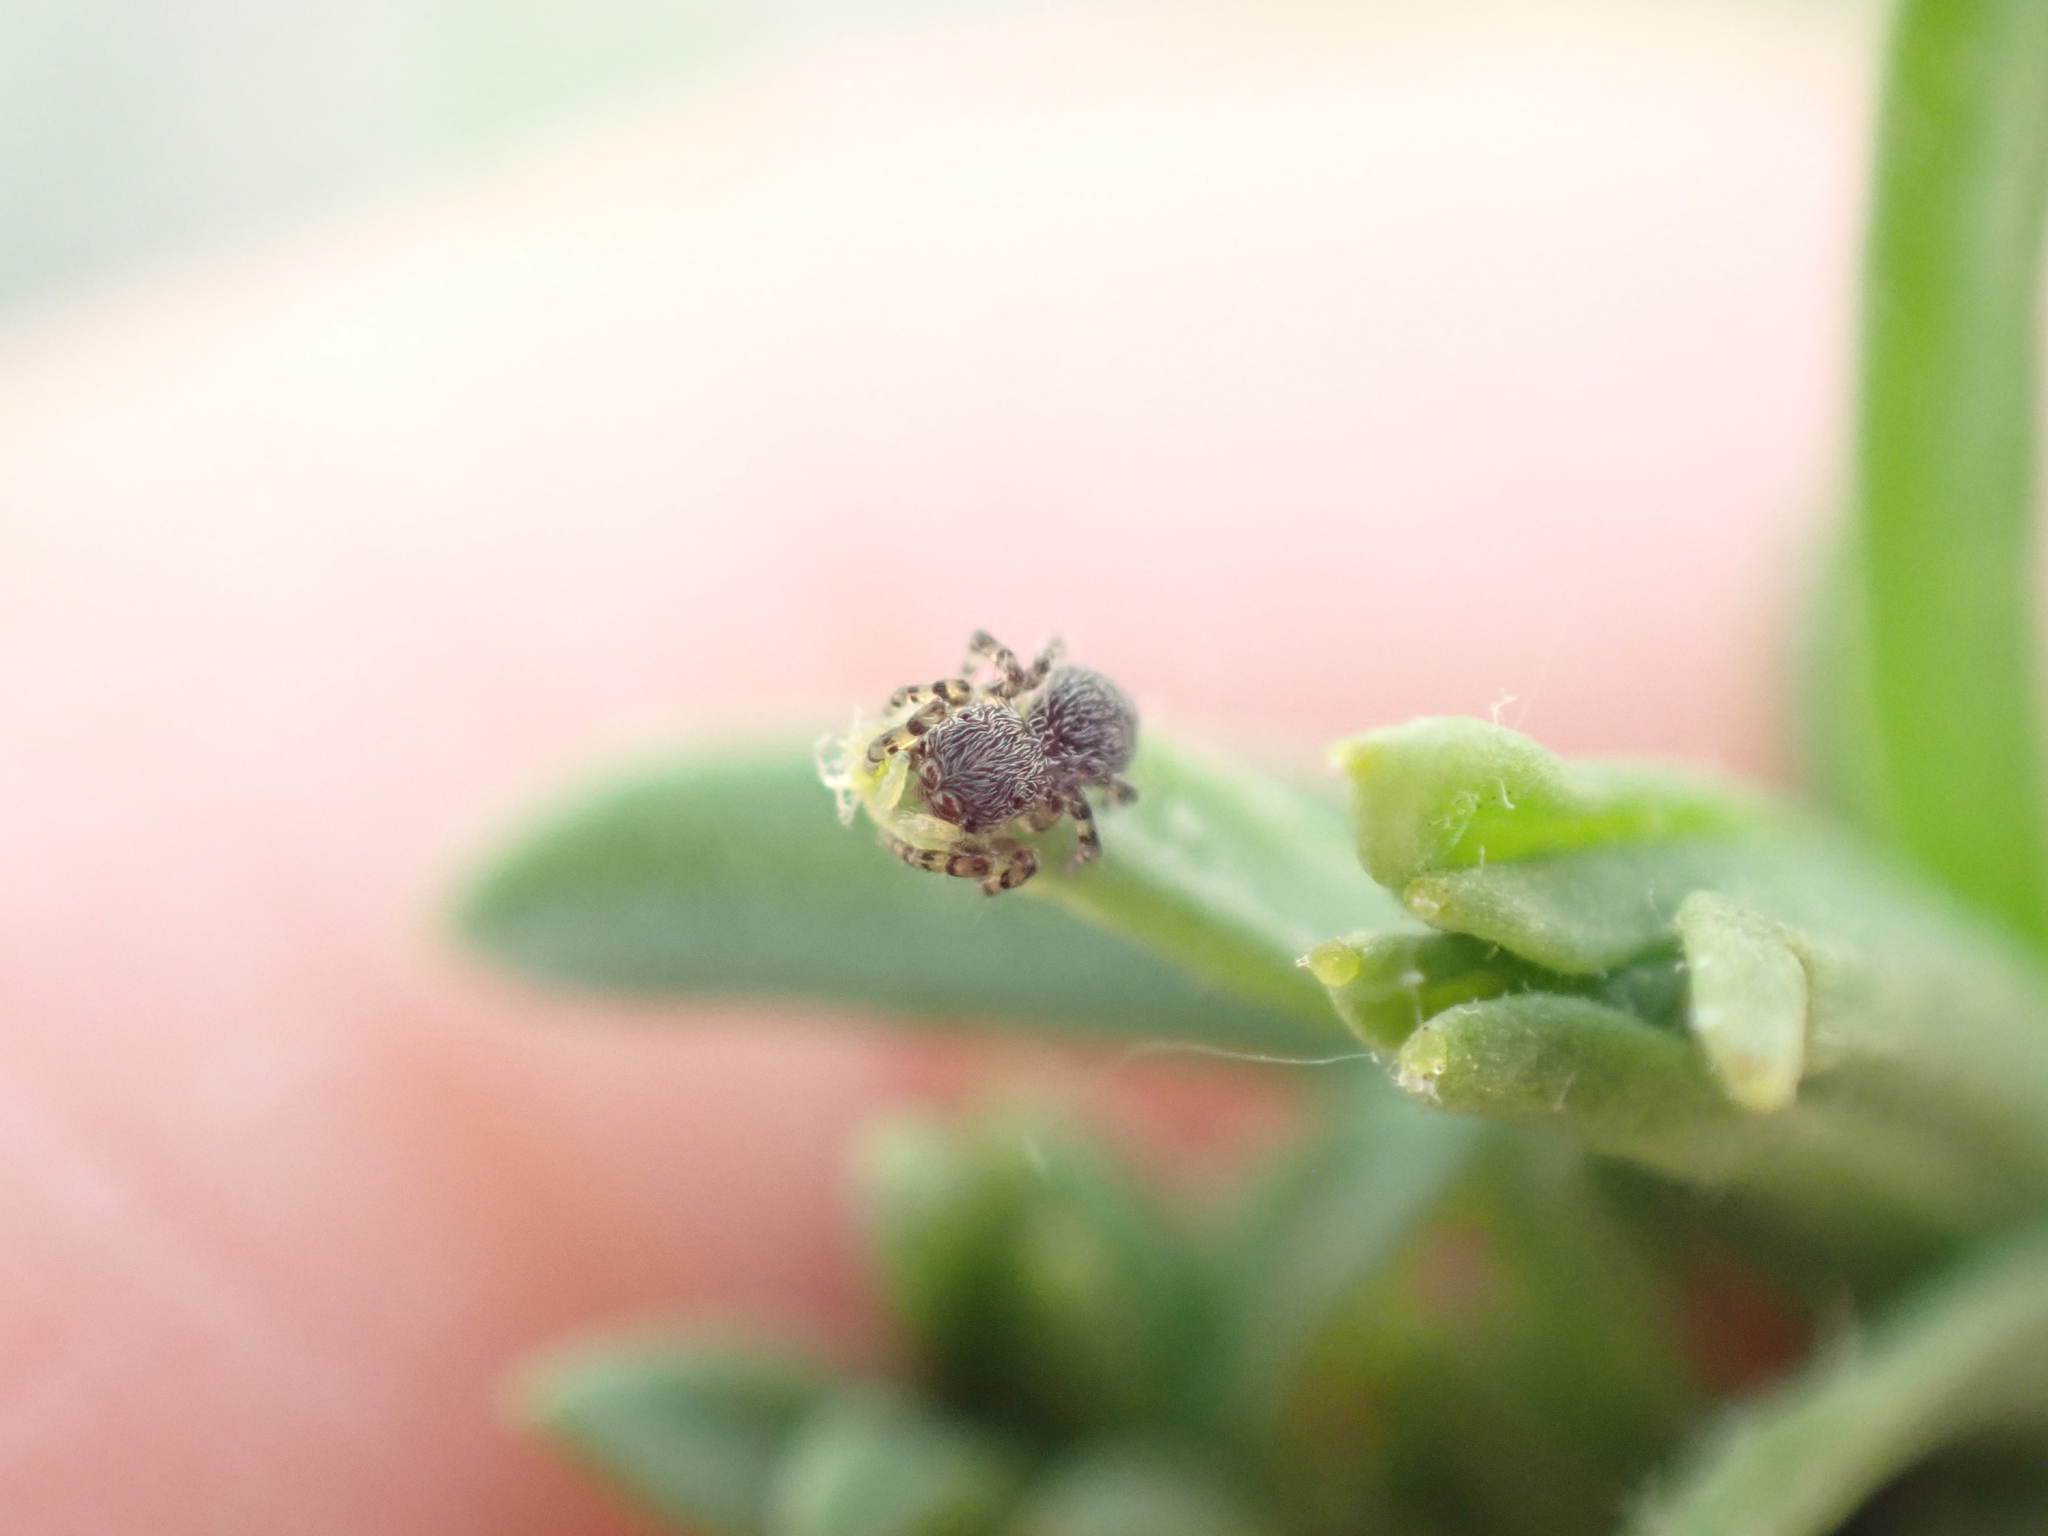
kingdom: Animalia
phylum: Arthropoda
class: Arachnida
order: Araneae
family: Salticidae
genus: Talavera
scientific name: Talavera minuta
